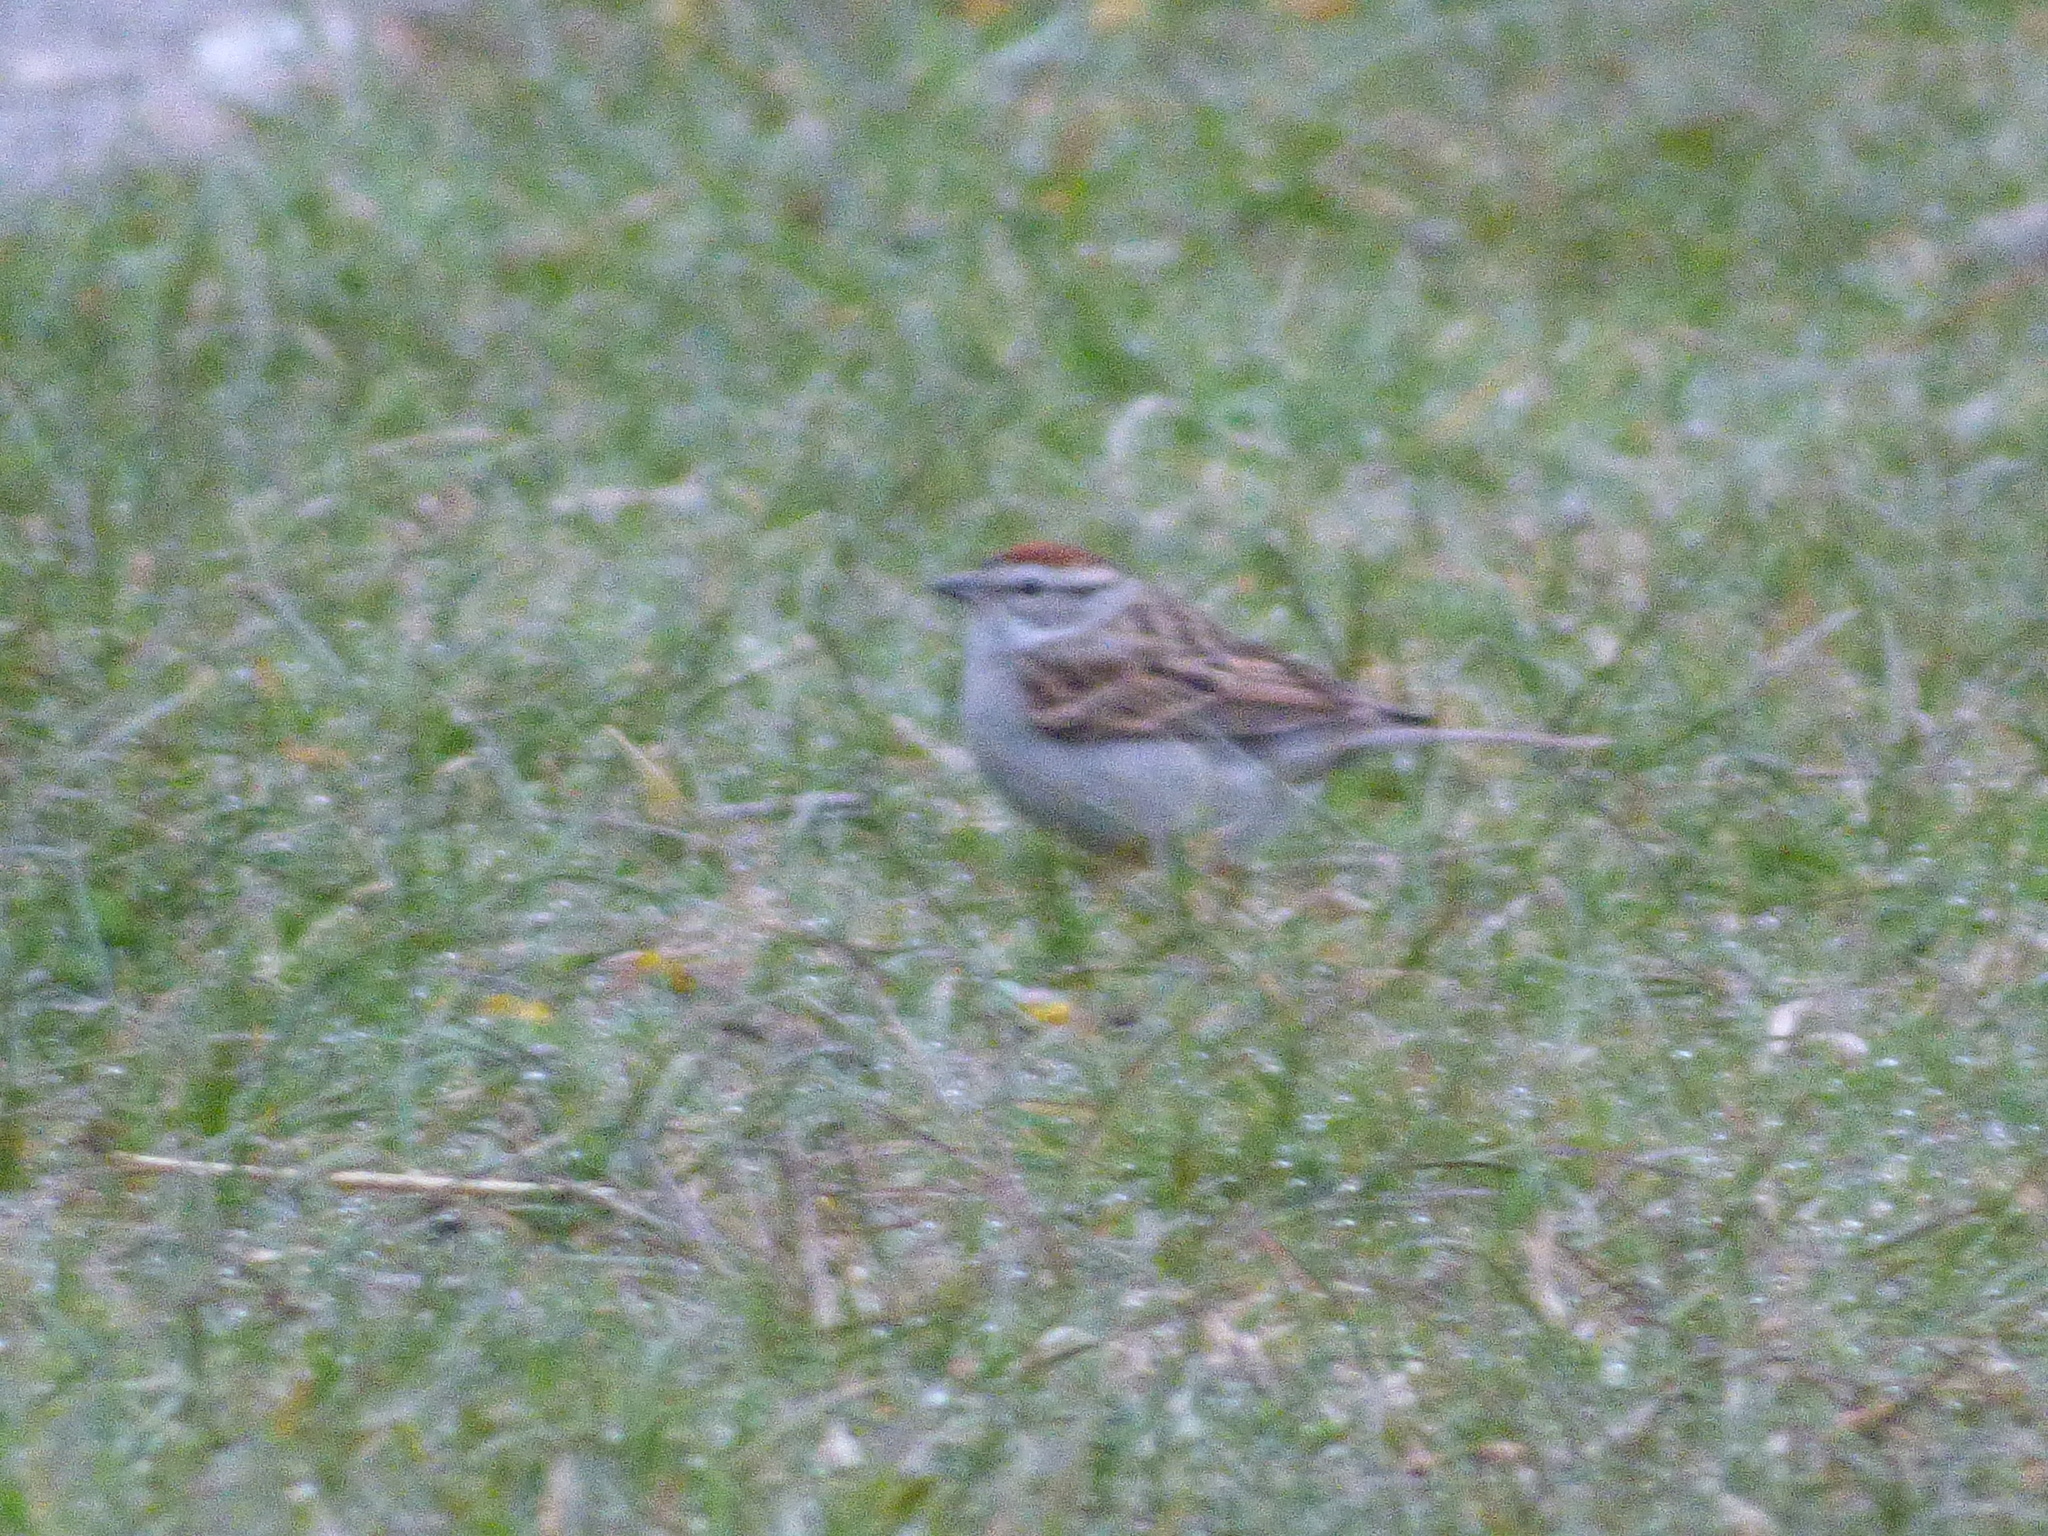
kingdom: Animalia
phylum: Chordata
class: Aves
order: Passeriformes
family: Passerellidae
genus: Spizella
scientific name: Spizella passerina
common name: Chipping sparrow
